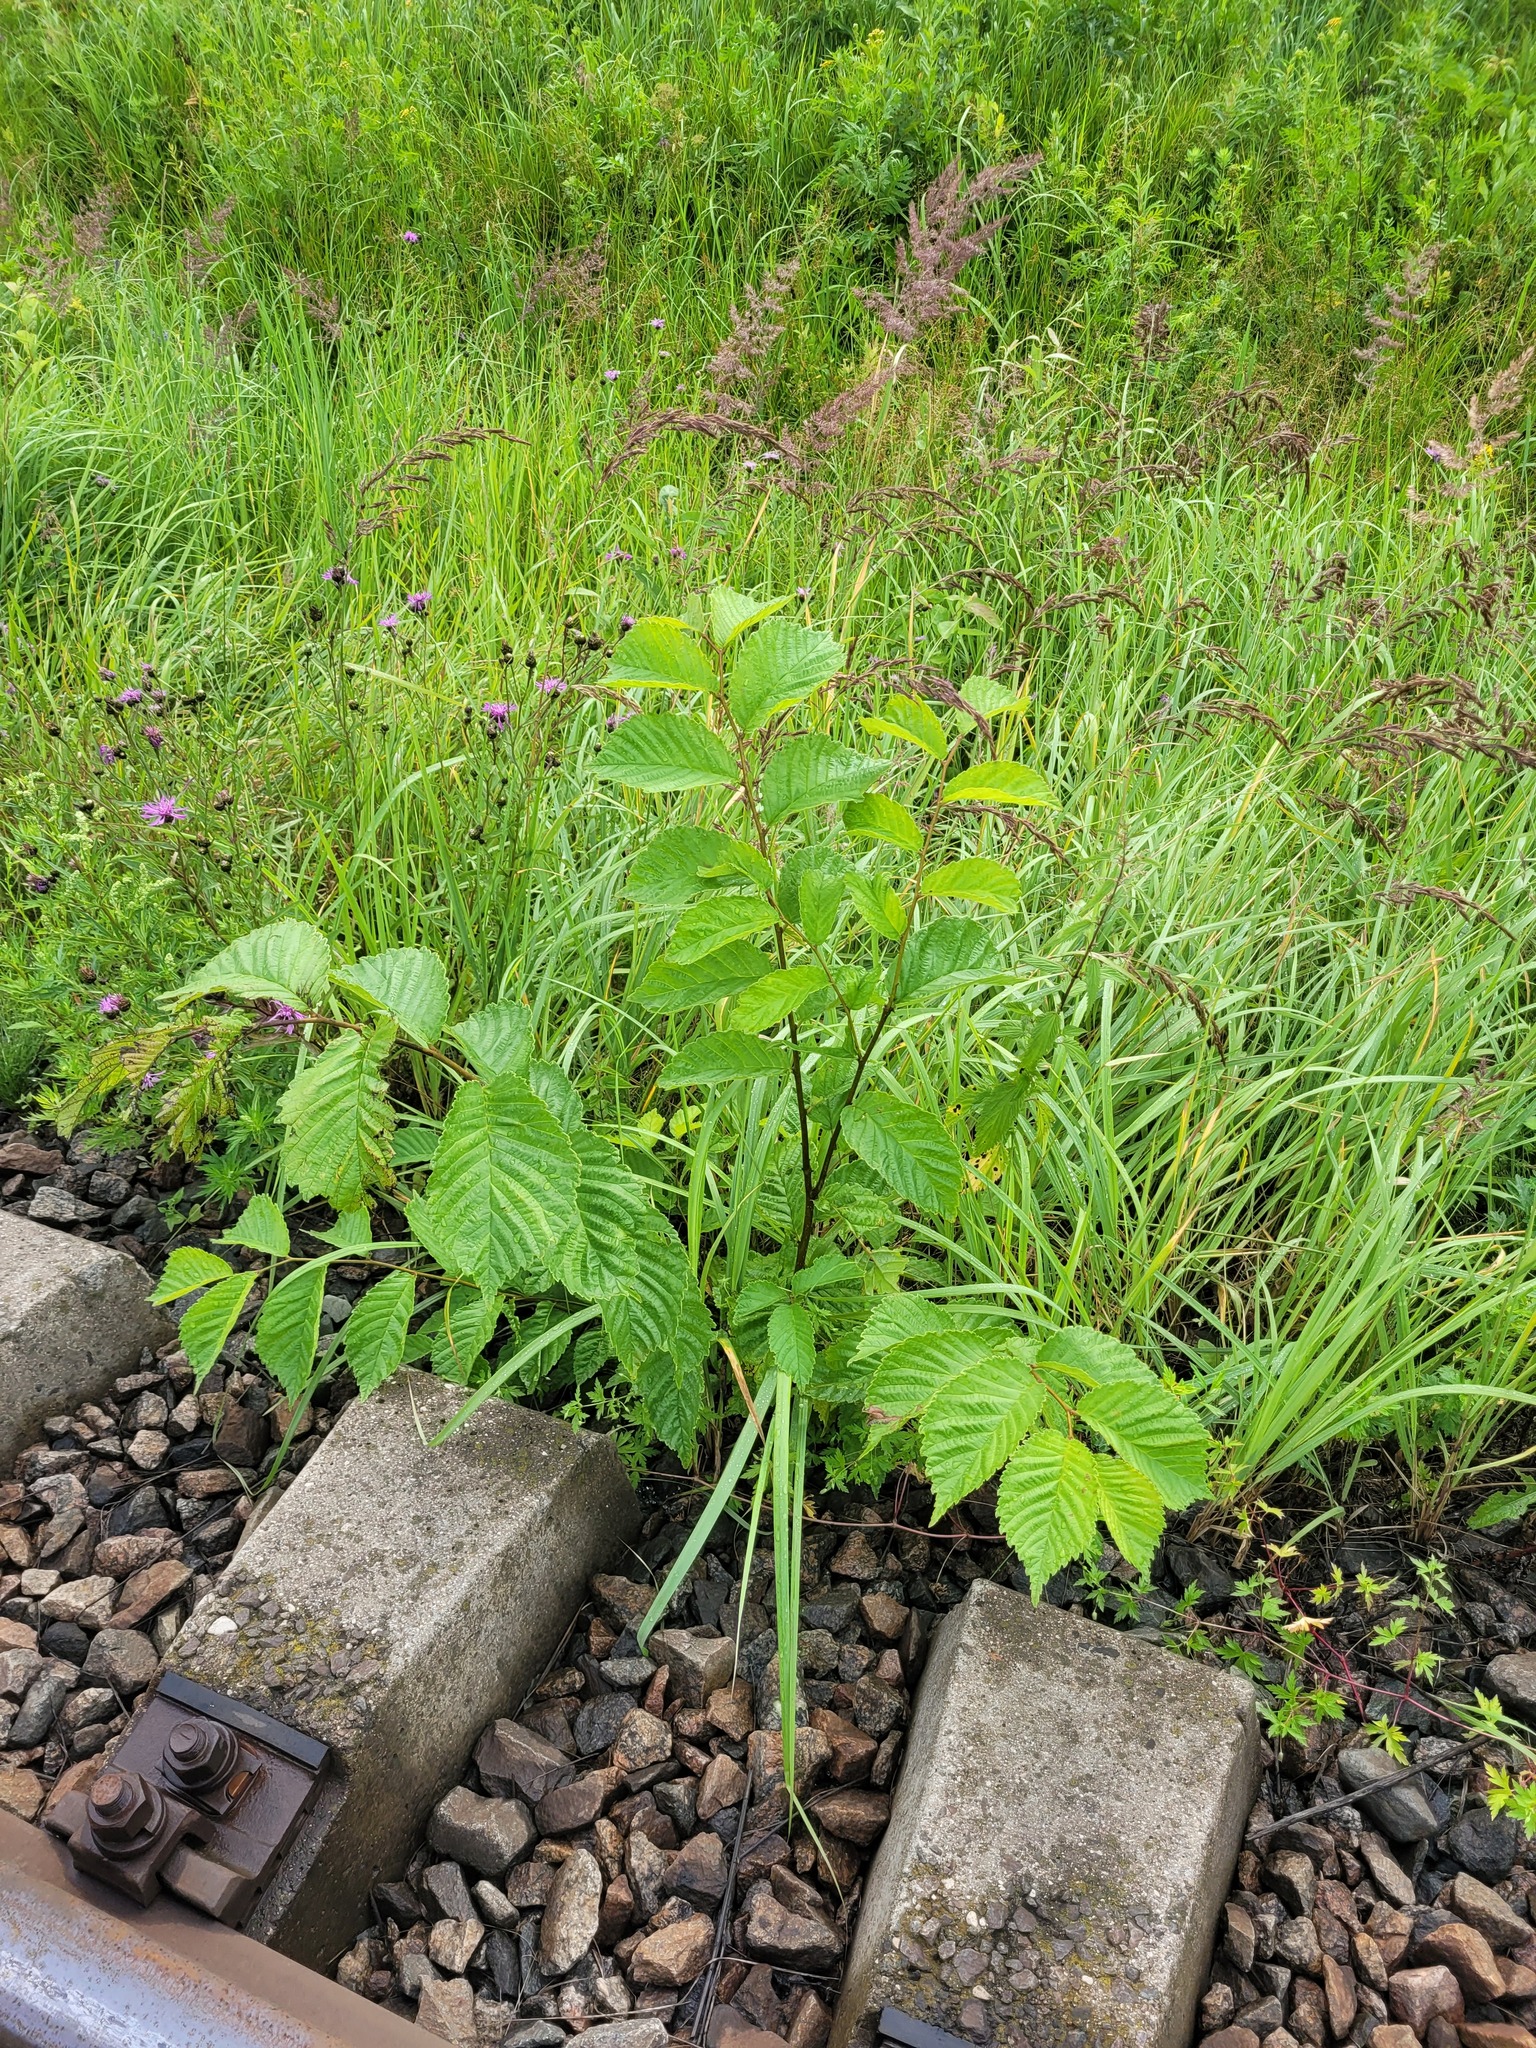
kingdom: Plantae
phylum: Tracheophyta
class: Magnoliopsida
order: Rosales
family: Ulmaceae
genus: Ulmus
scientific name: Ulmus glabra
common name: Wych elm
